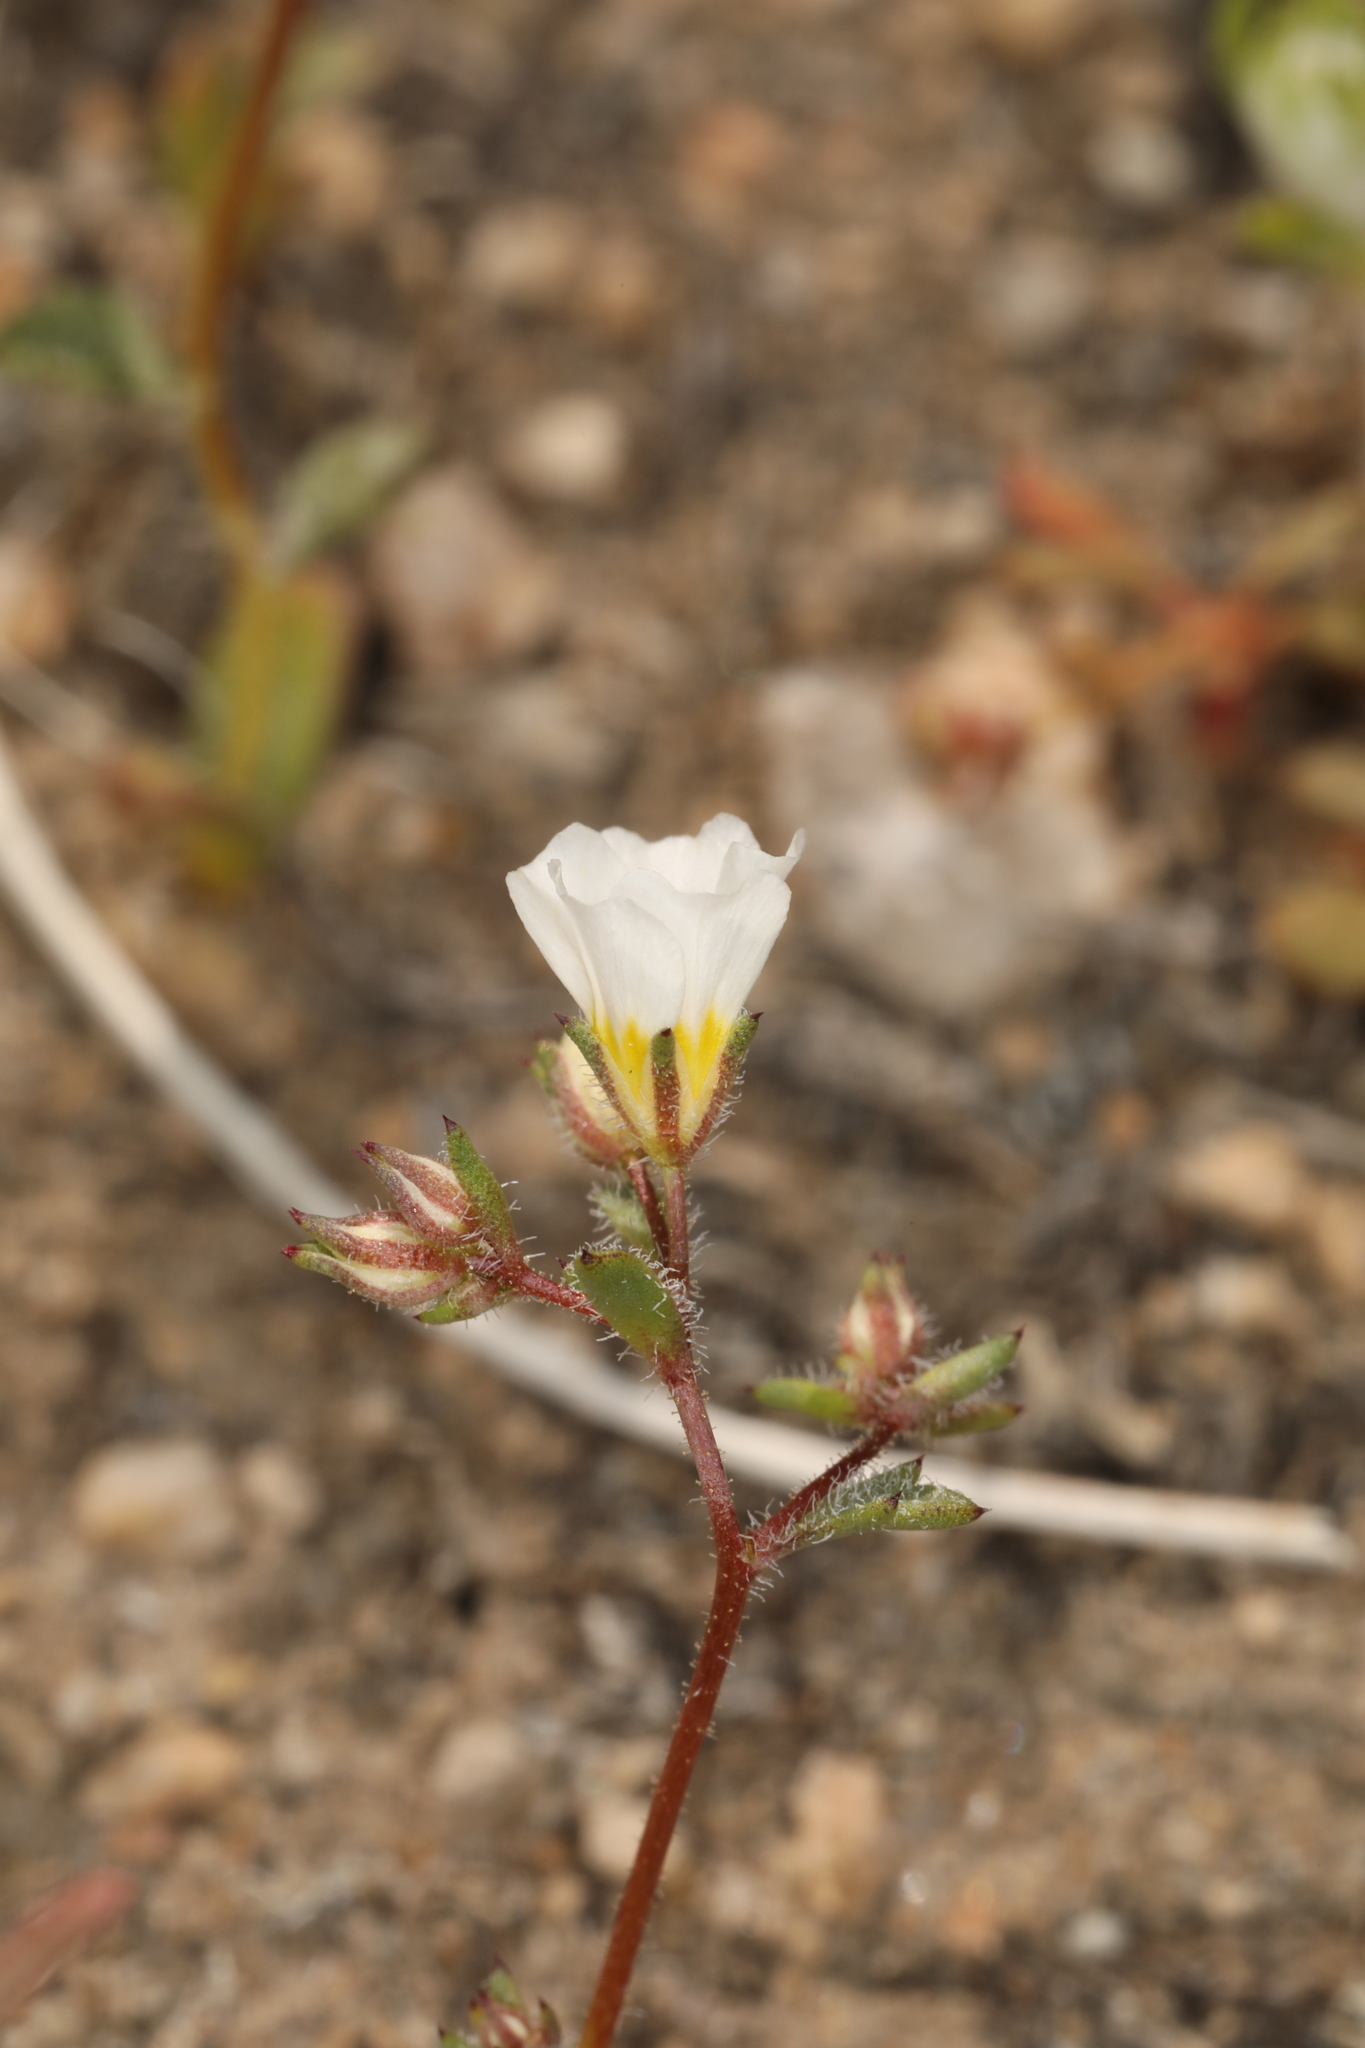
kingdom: Plantae
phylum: Tracheophyta
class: Magnoliopsida
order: Ericales
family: Polemoniaceae
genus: Linanthus
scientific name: Linanthus inyoensis
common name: Inyo gilia
